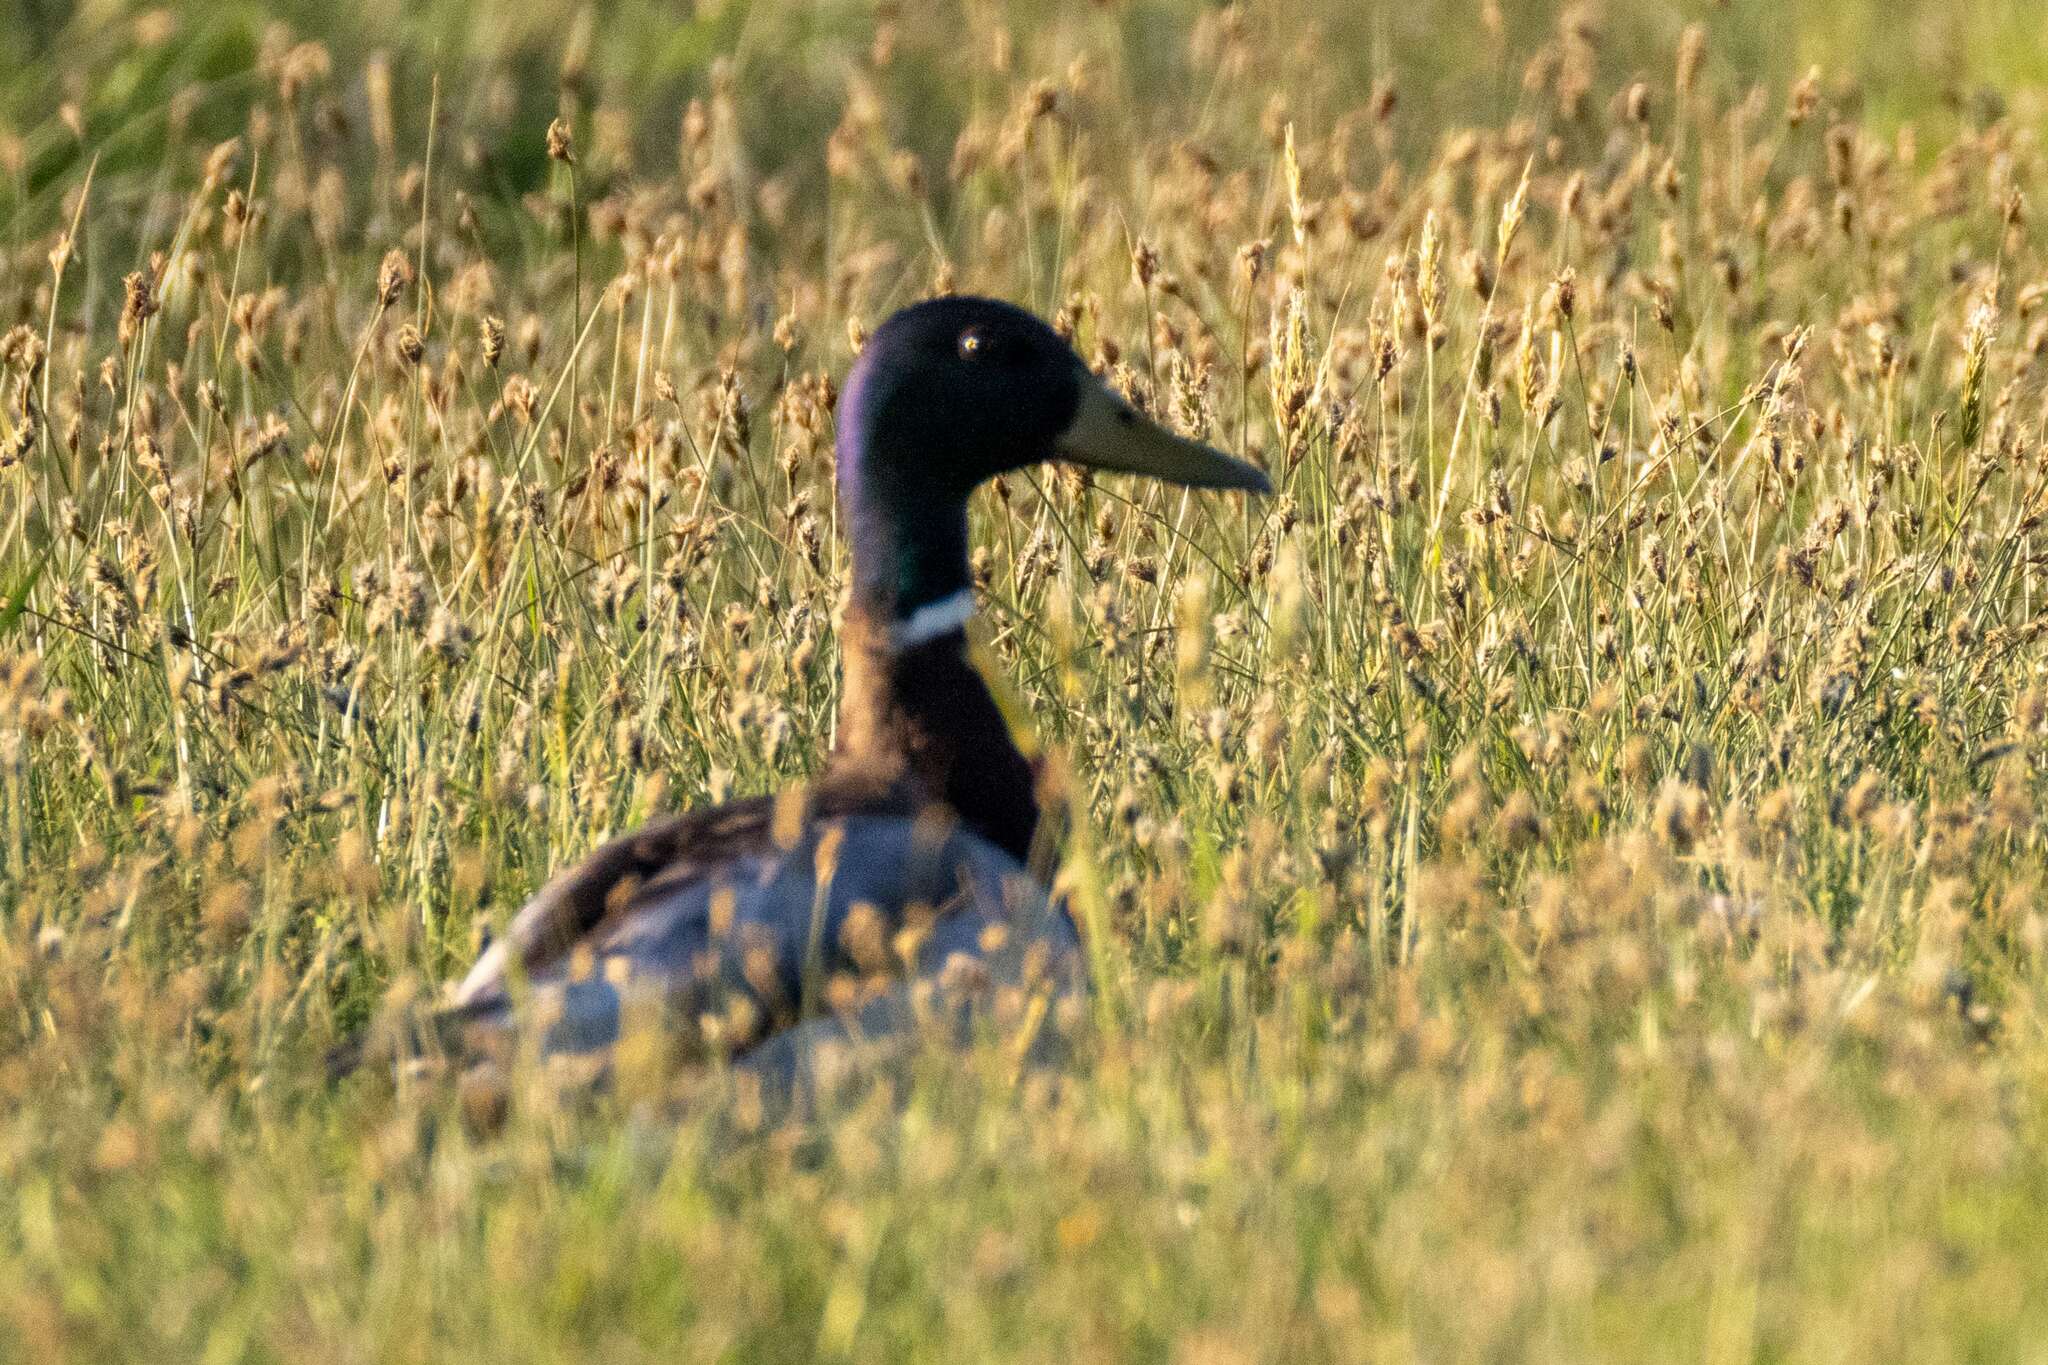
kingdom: Animalia
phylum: Chordata
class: Aves
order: Anseriformes
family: Anatidae
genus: Anas
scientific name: Anas platyrhynchos
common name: Mallard
